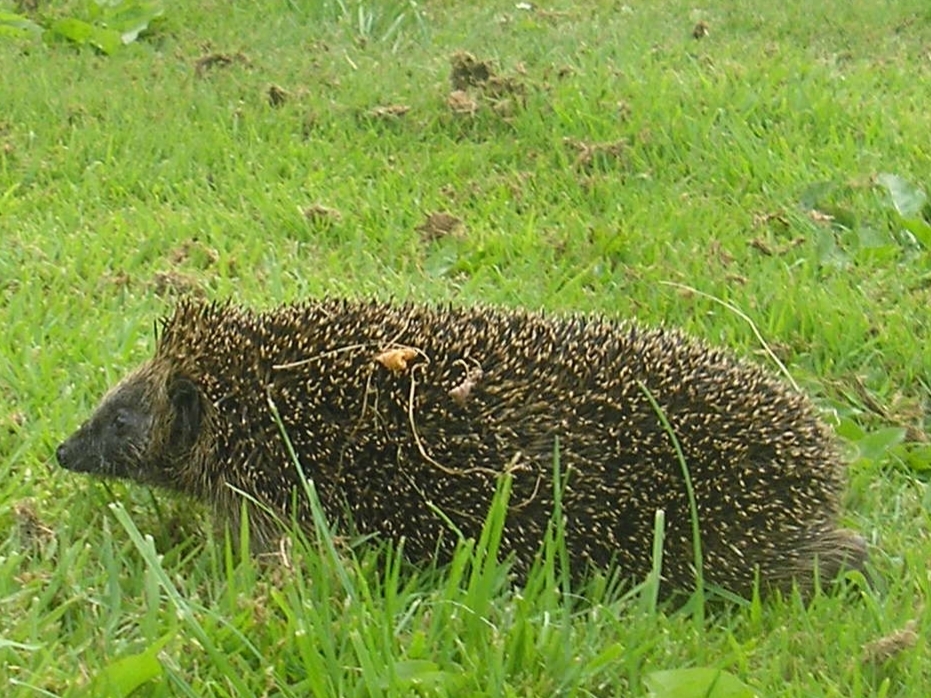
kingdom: Animalia
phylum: Chordata
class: Mammalia
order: Erinaceomorpha
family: Erinaceidae
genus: Erinaceus
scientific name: Erinaceus europaeus
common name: West european hedgehog
